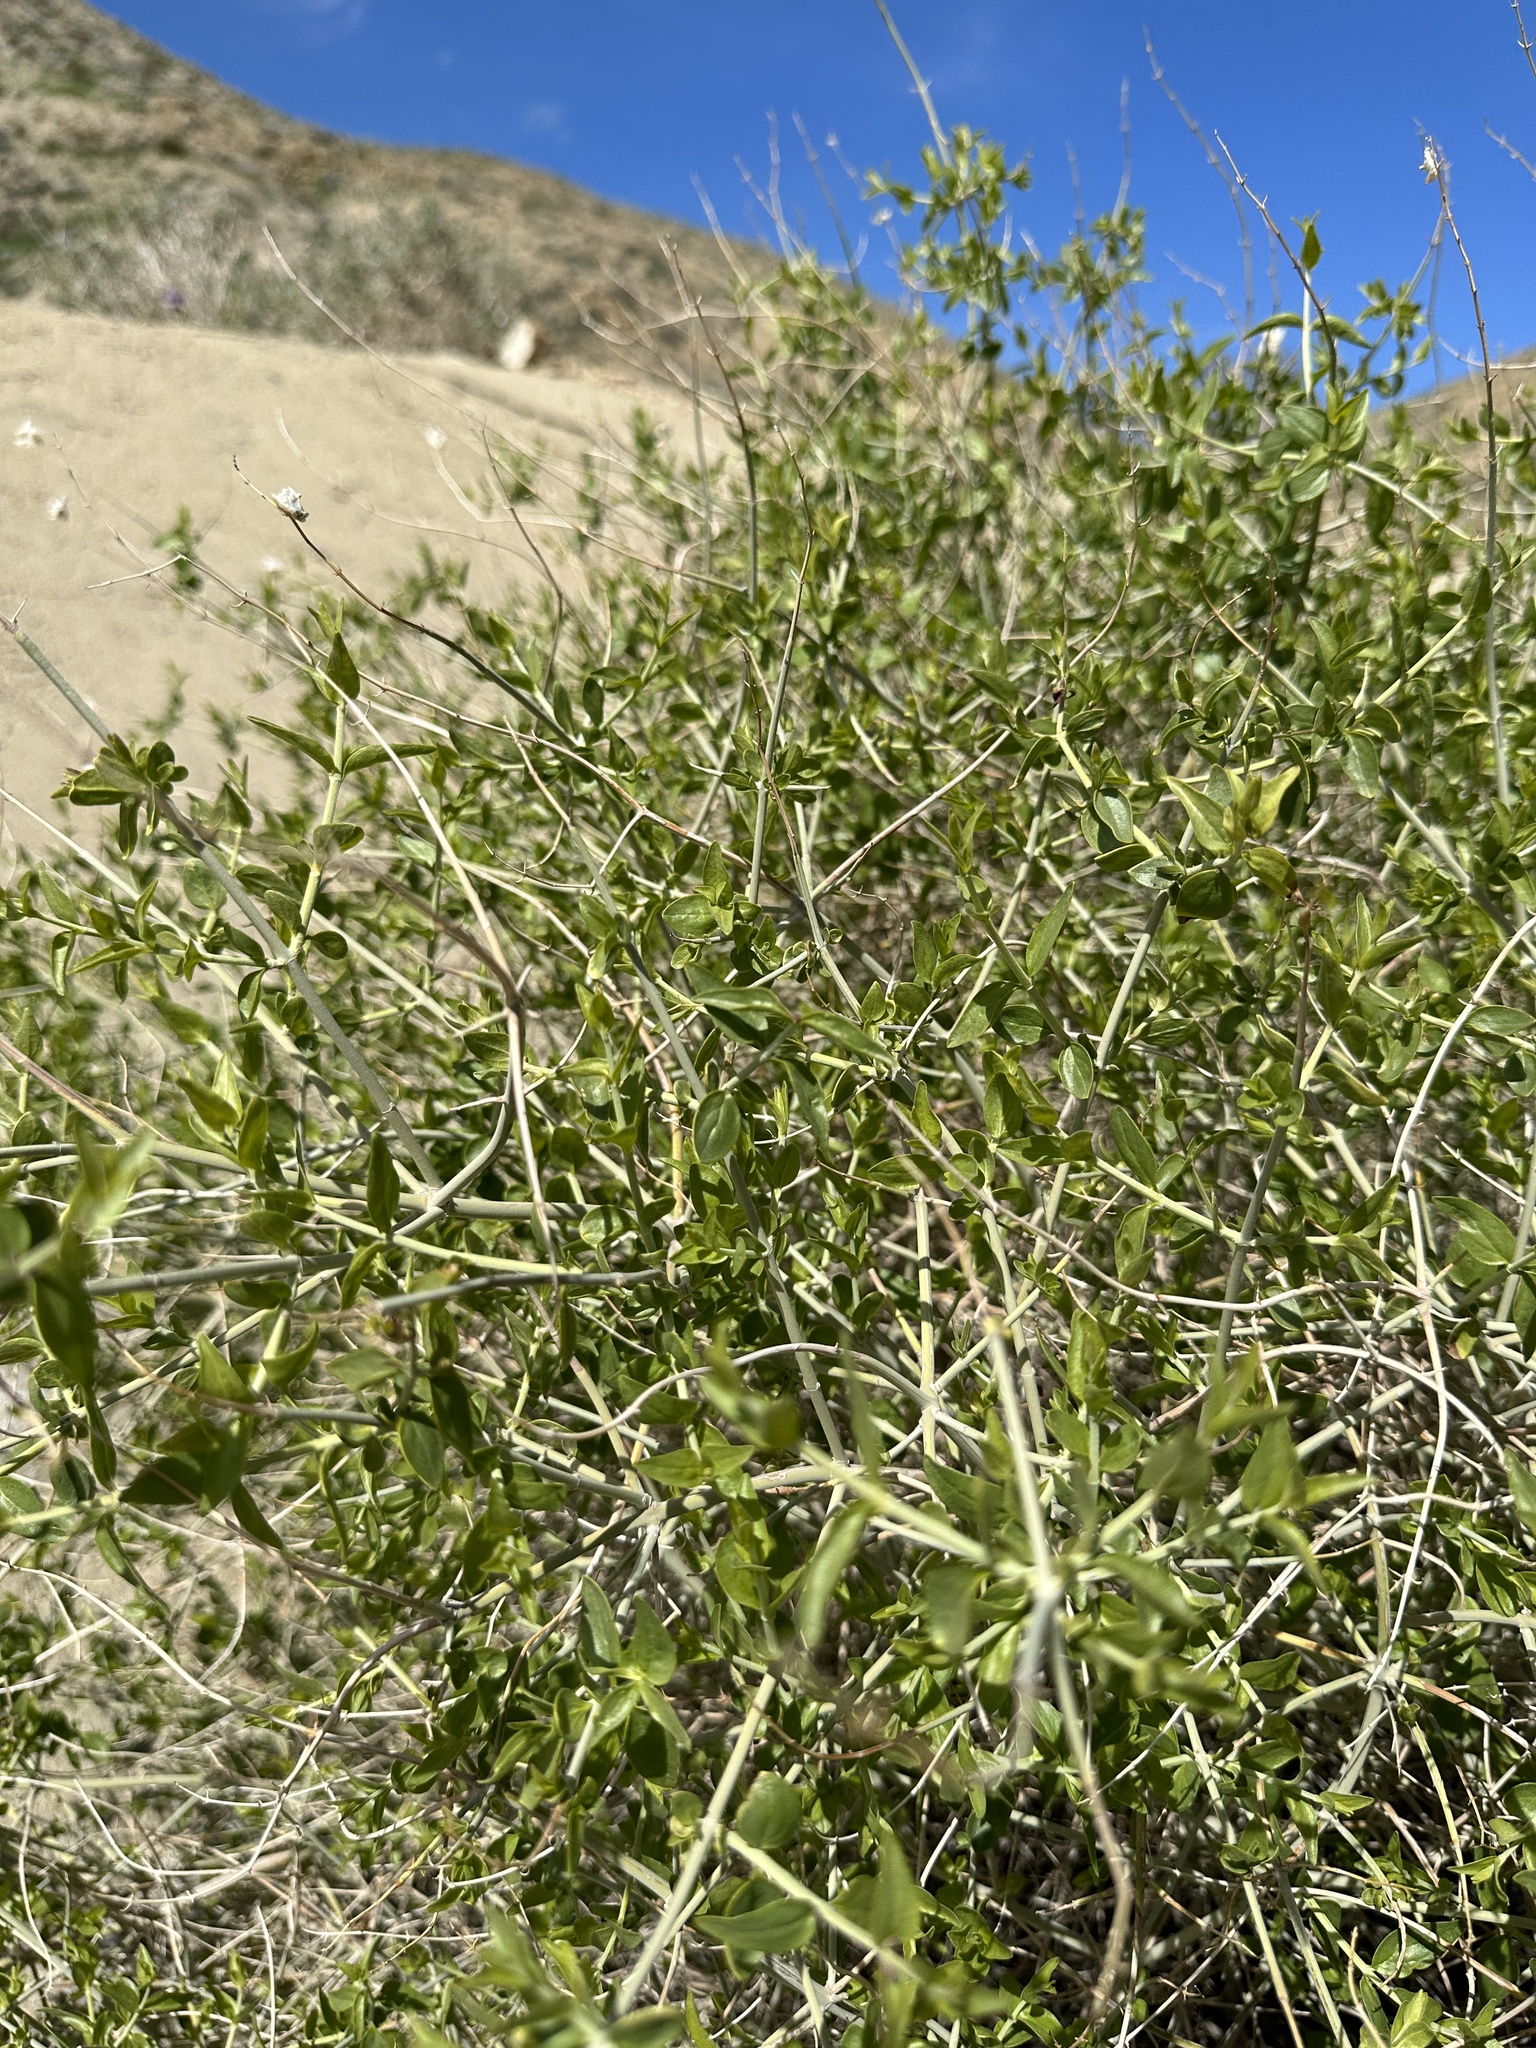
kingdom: Plantae
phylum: Tracheophyta
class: Magnoliopsida
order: Lamiales
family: Lamiaceae
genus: Scutellaria
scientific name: Scutellaria mexicana
